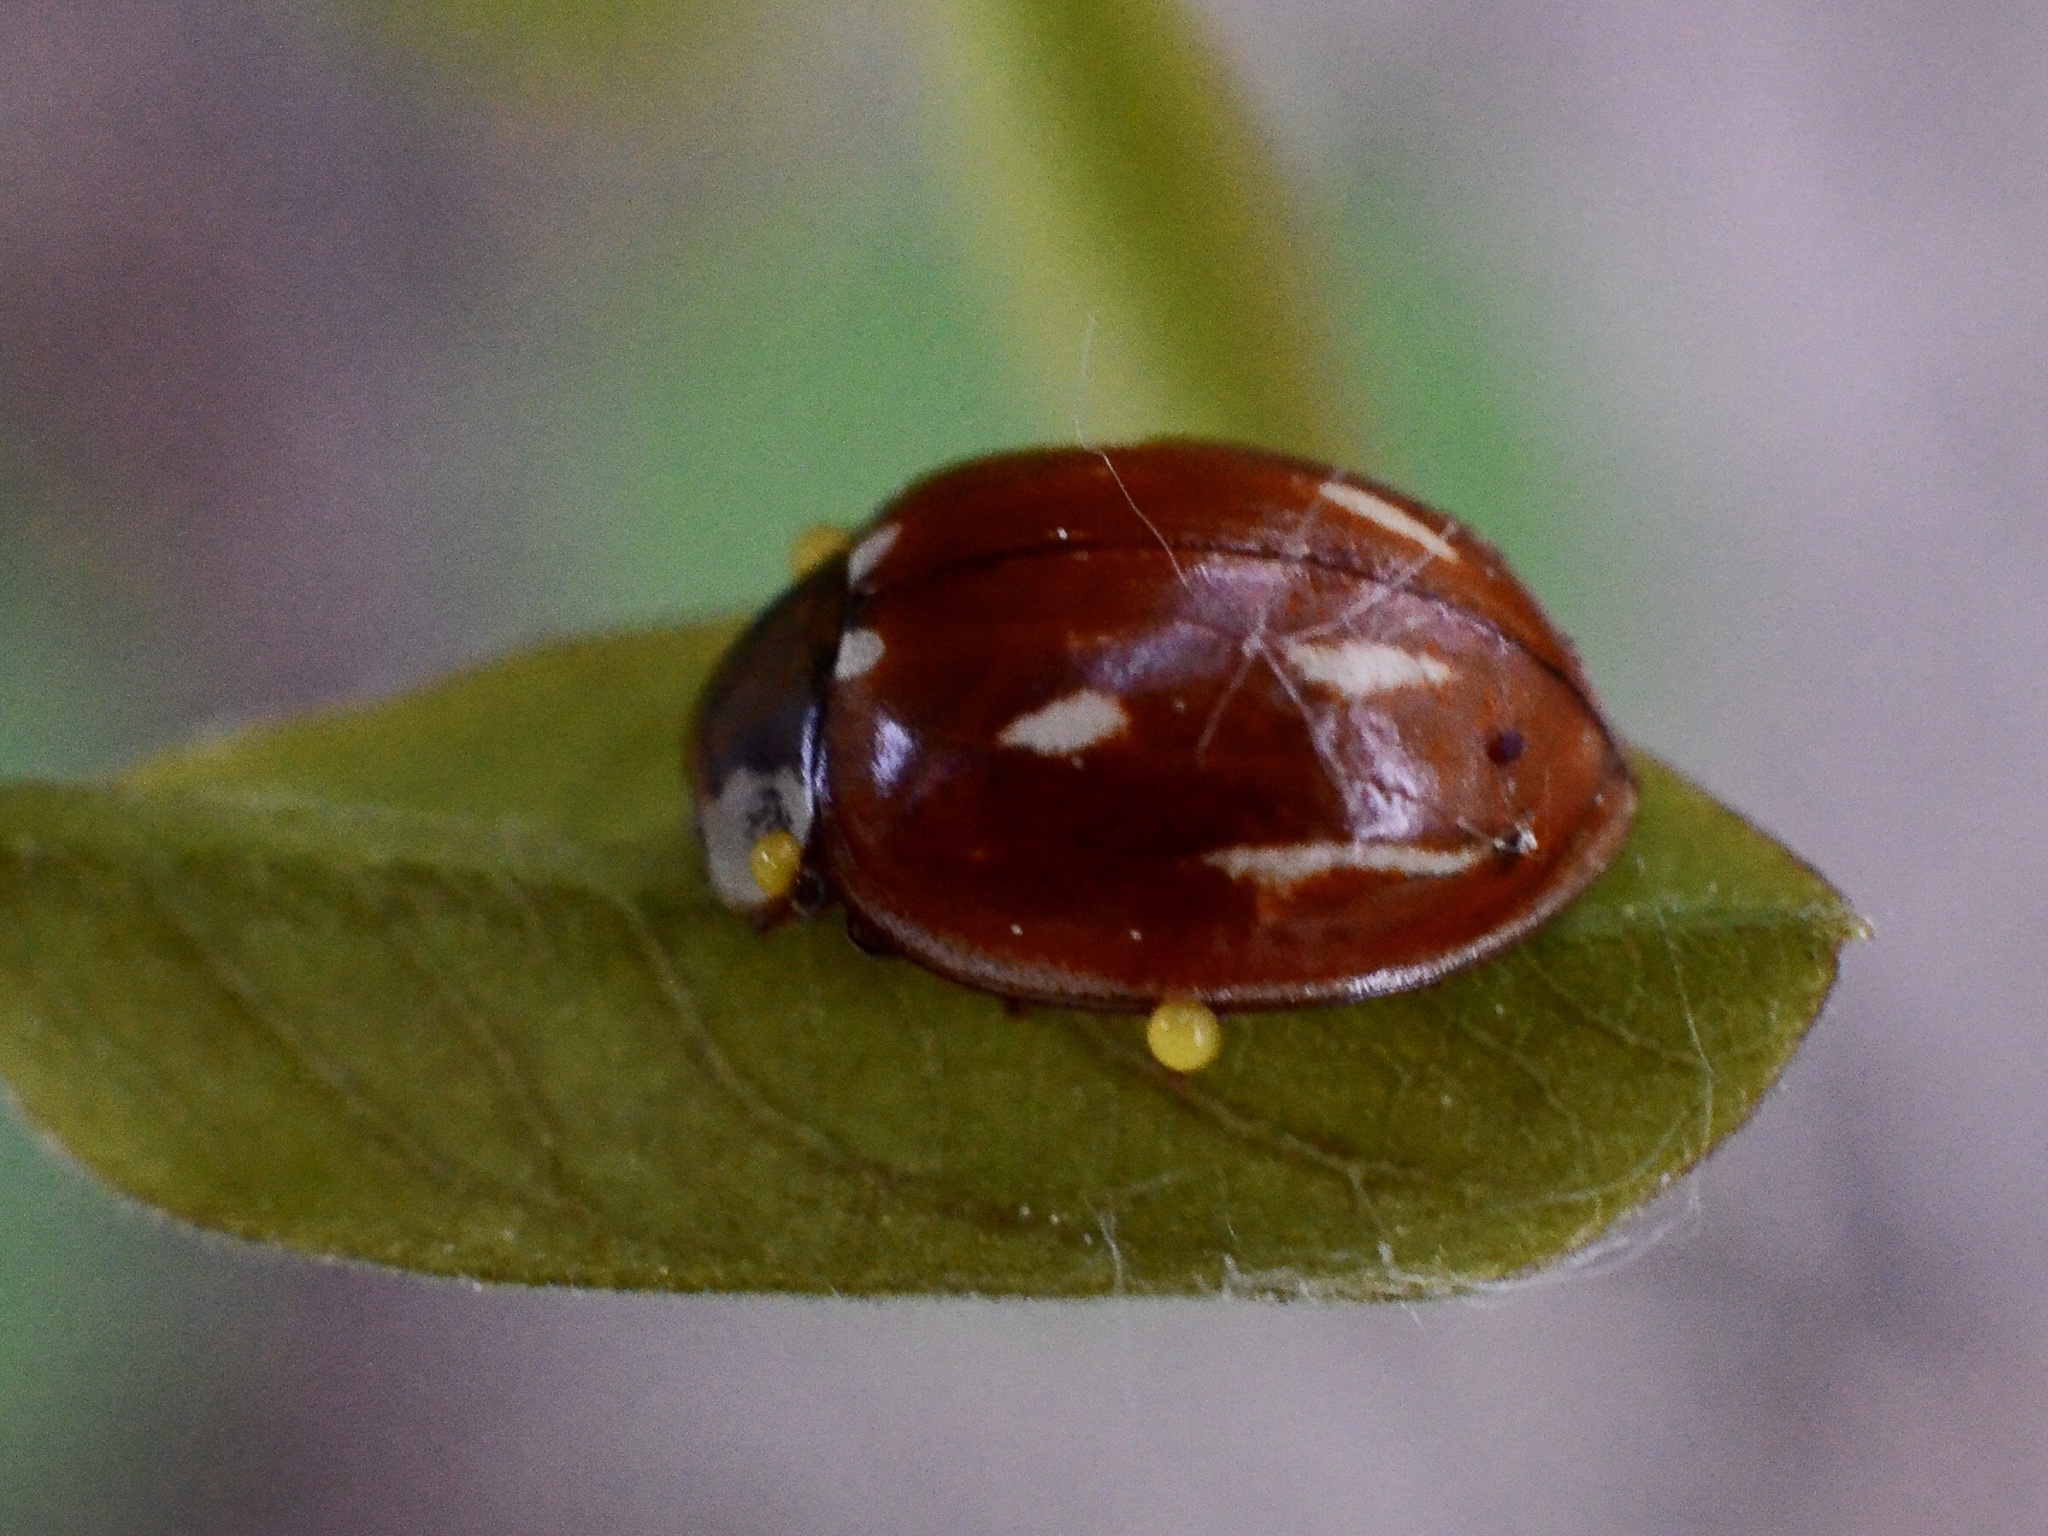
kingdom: Animalia
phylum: Arthropoda
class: Insecta
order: Coleoptera
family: Coccinellidae
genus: Myzia
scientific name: Myzia oblongoguttata
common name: Striped ladybird
